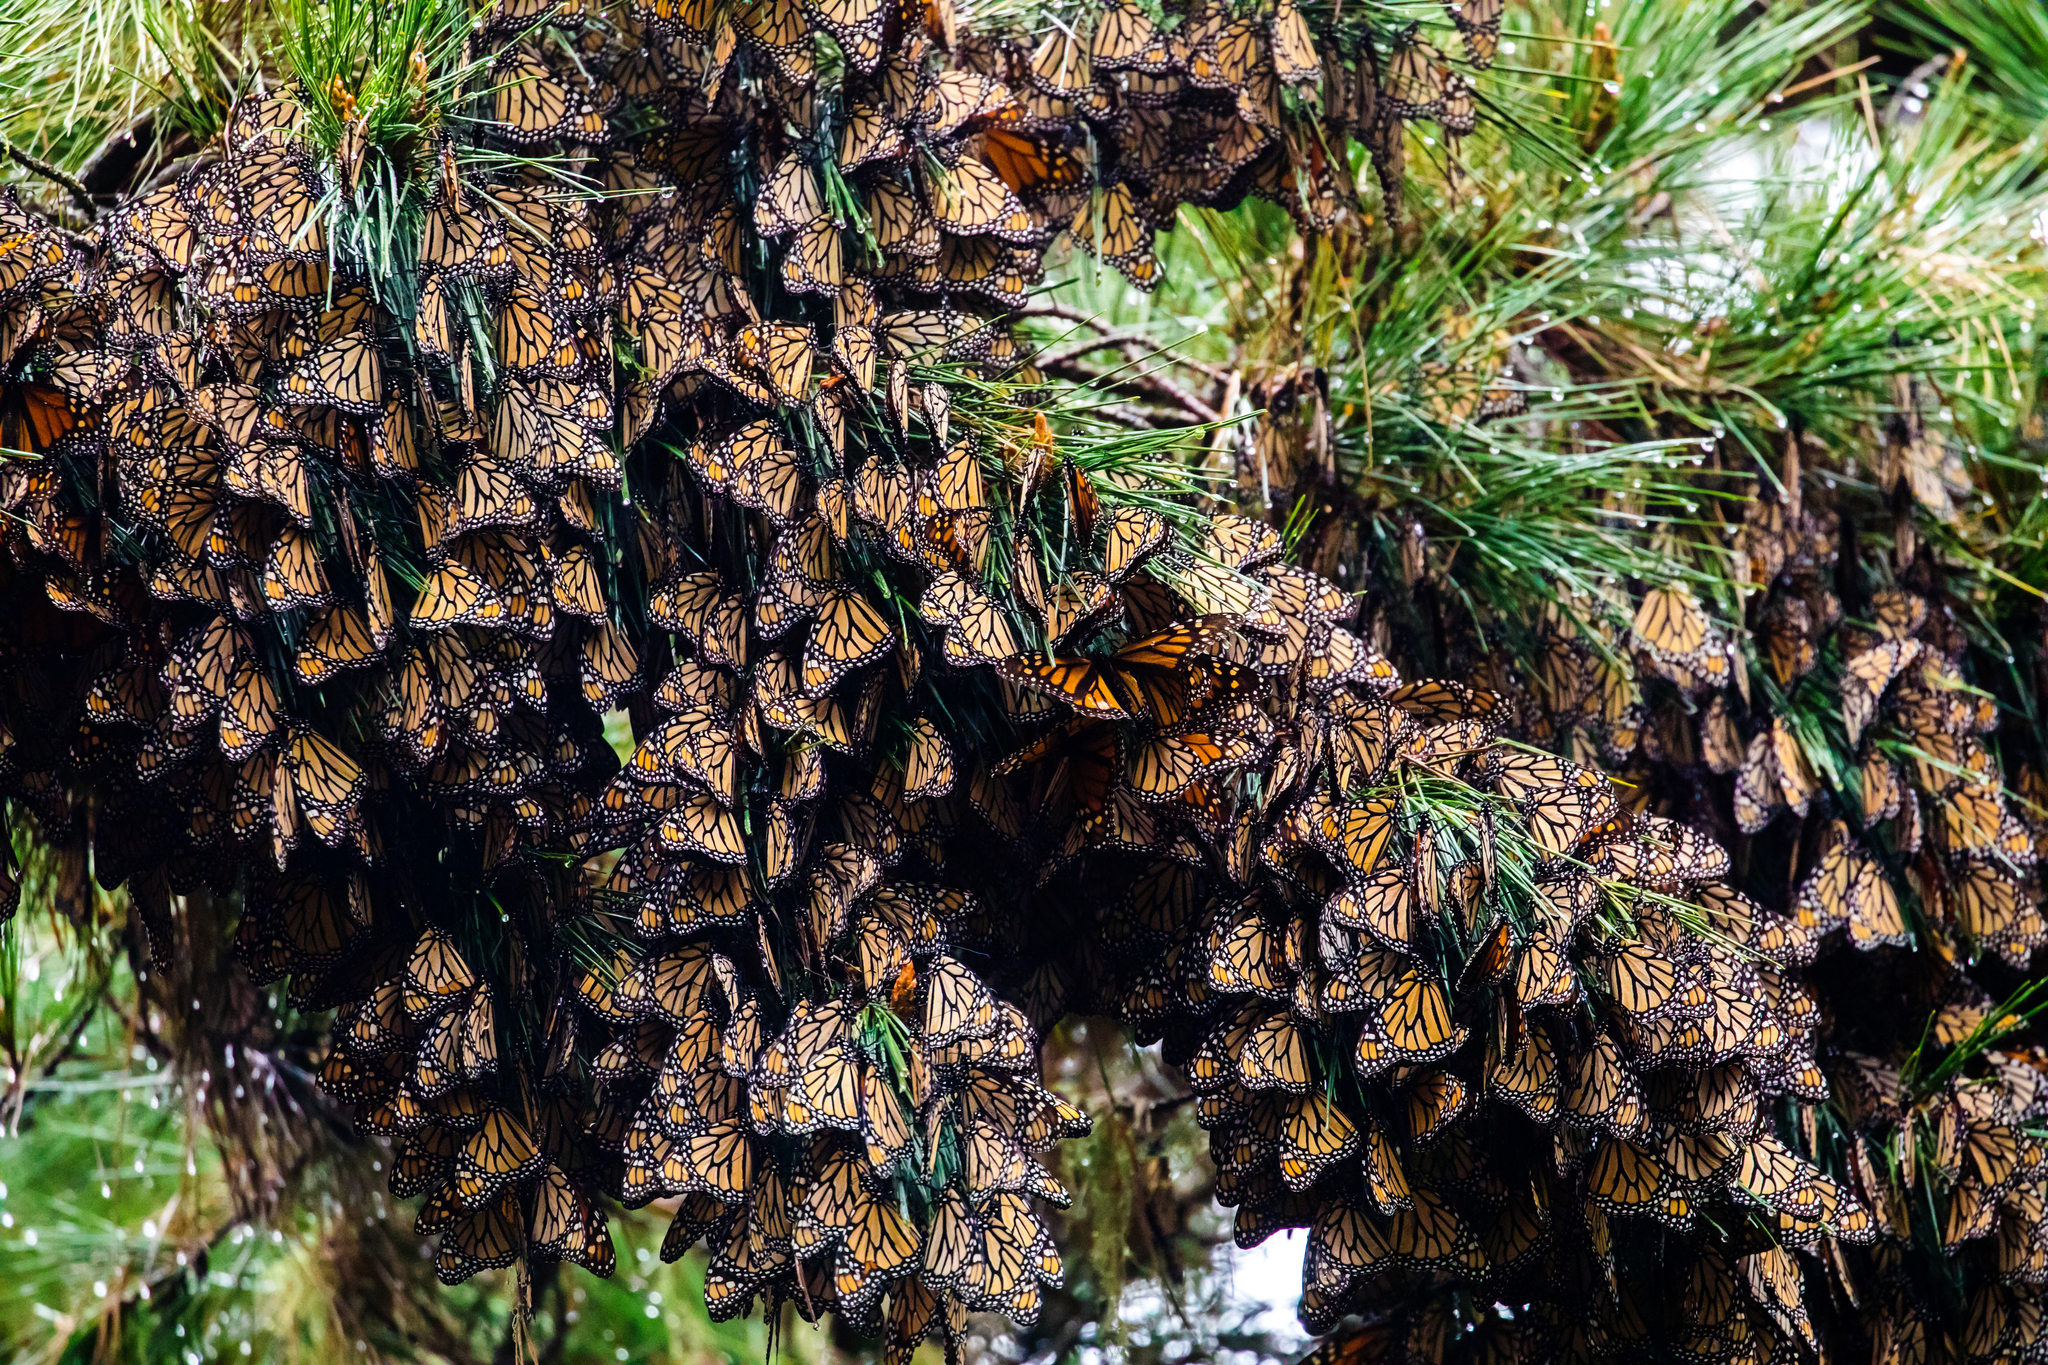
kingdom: Animalia
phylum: Arthropoda
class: Insecta
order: Lepidoptera
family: Nymphalidae
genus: Danaus
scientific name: Danaus plexippus
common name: Monarch
